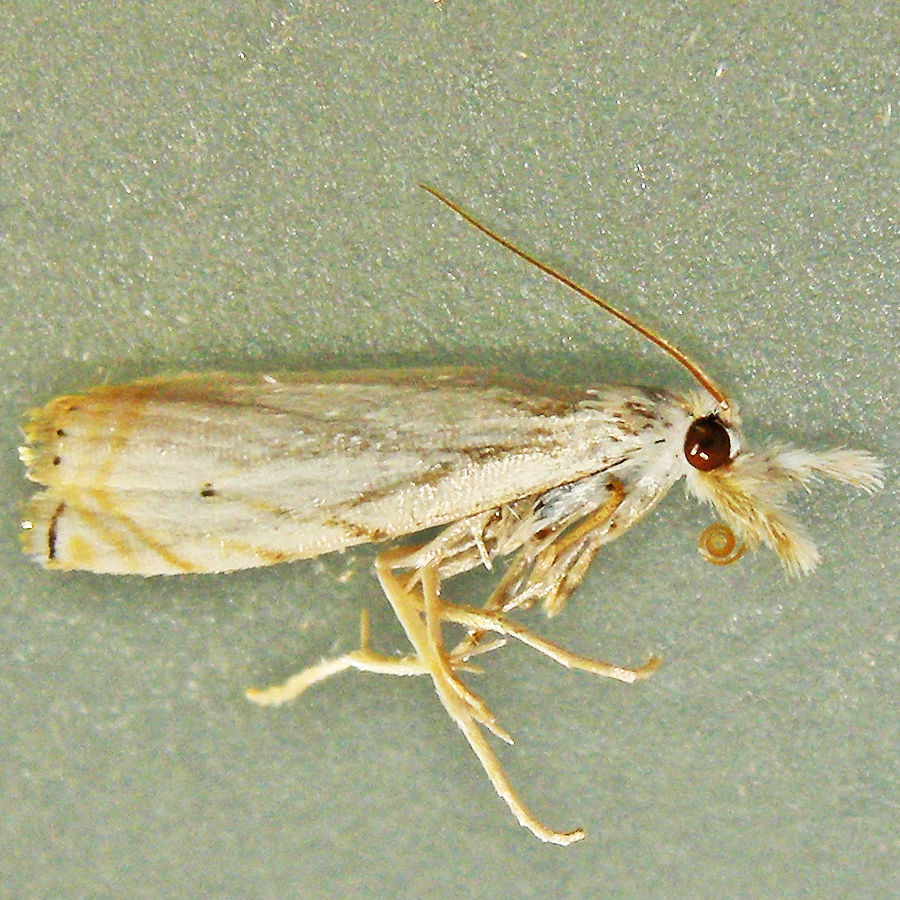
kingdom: Animalia
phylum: Arthropoda
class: Insecta
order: Lepidoptera
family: Crambidae
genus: Crambus
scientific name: Crambus albellus
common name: Small white grass-veneer
